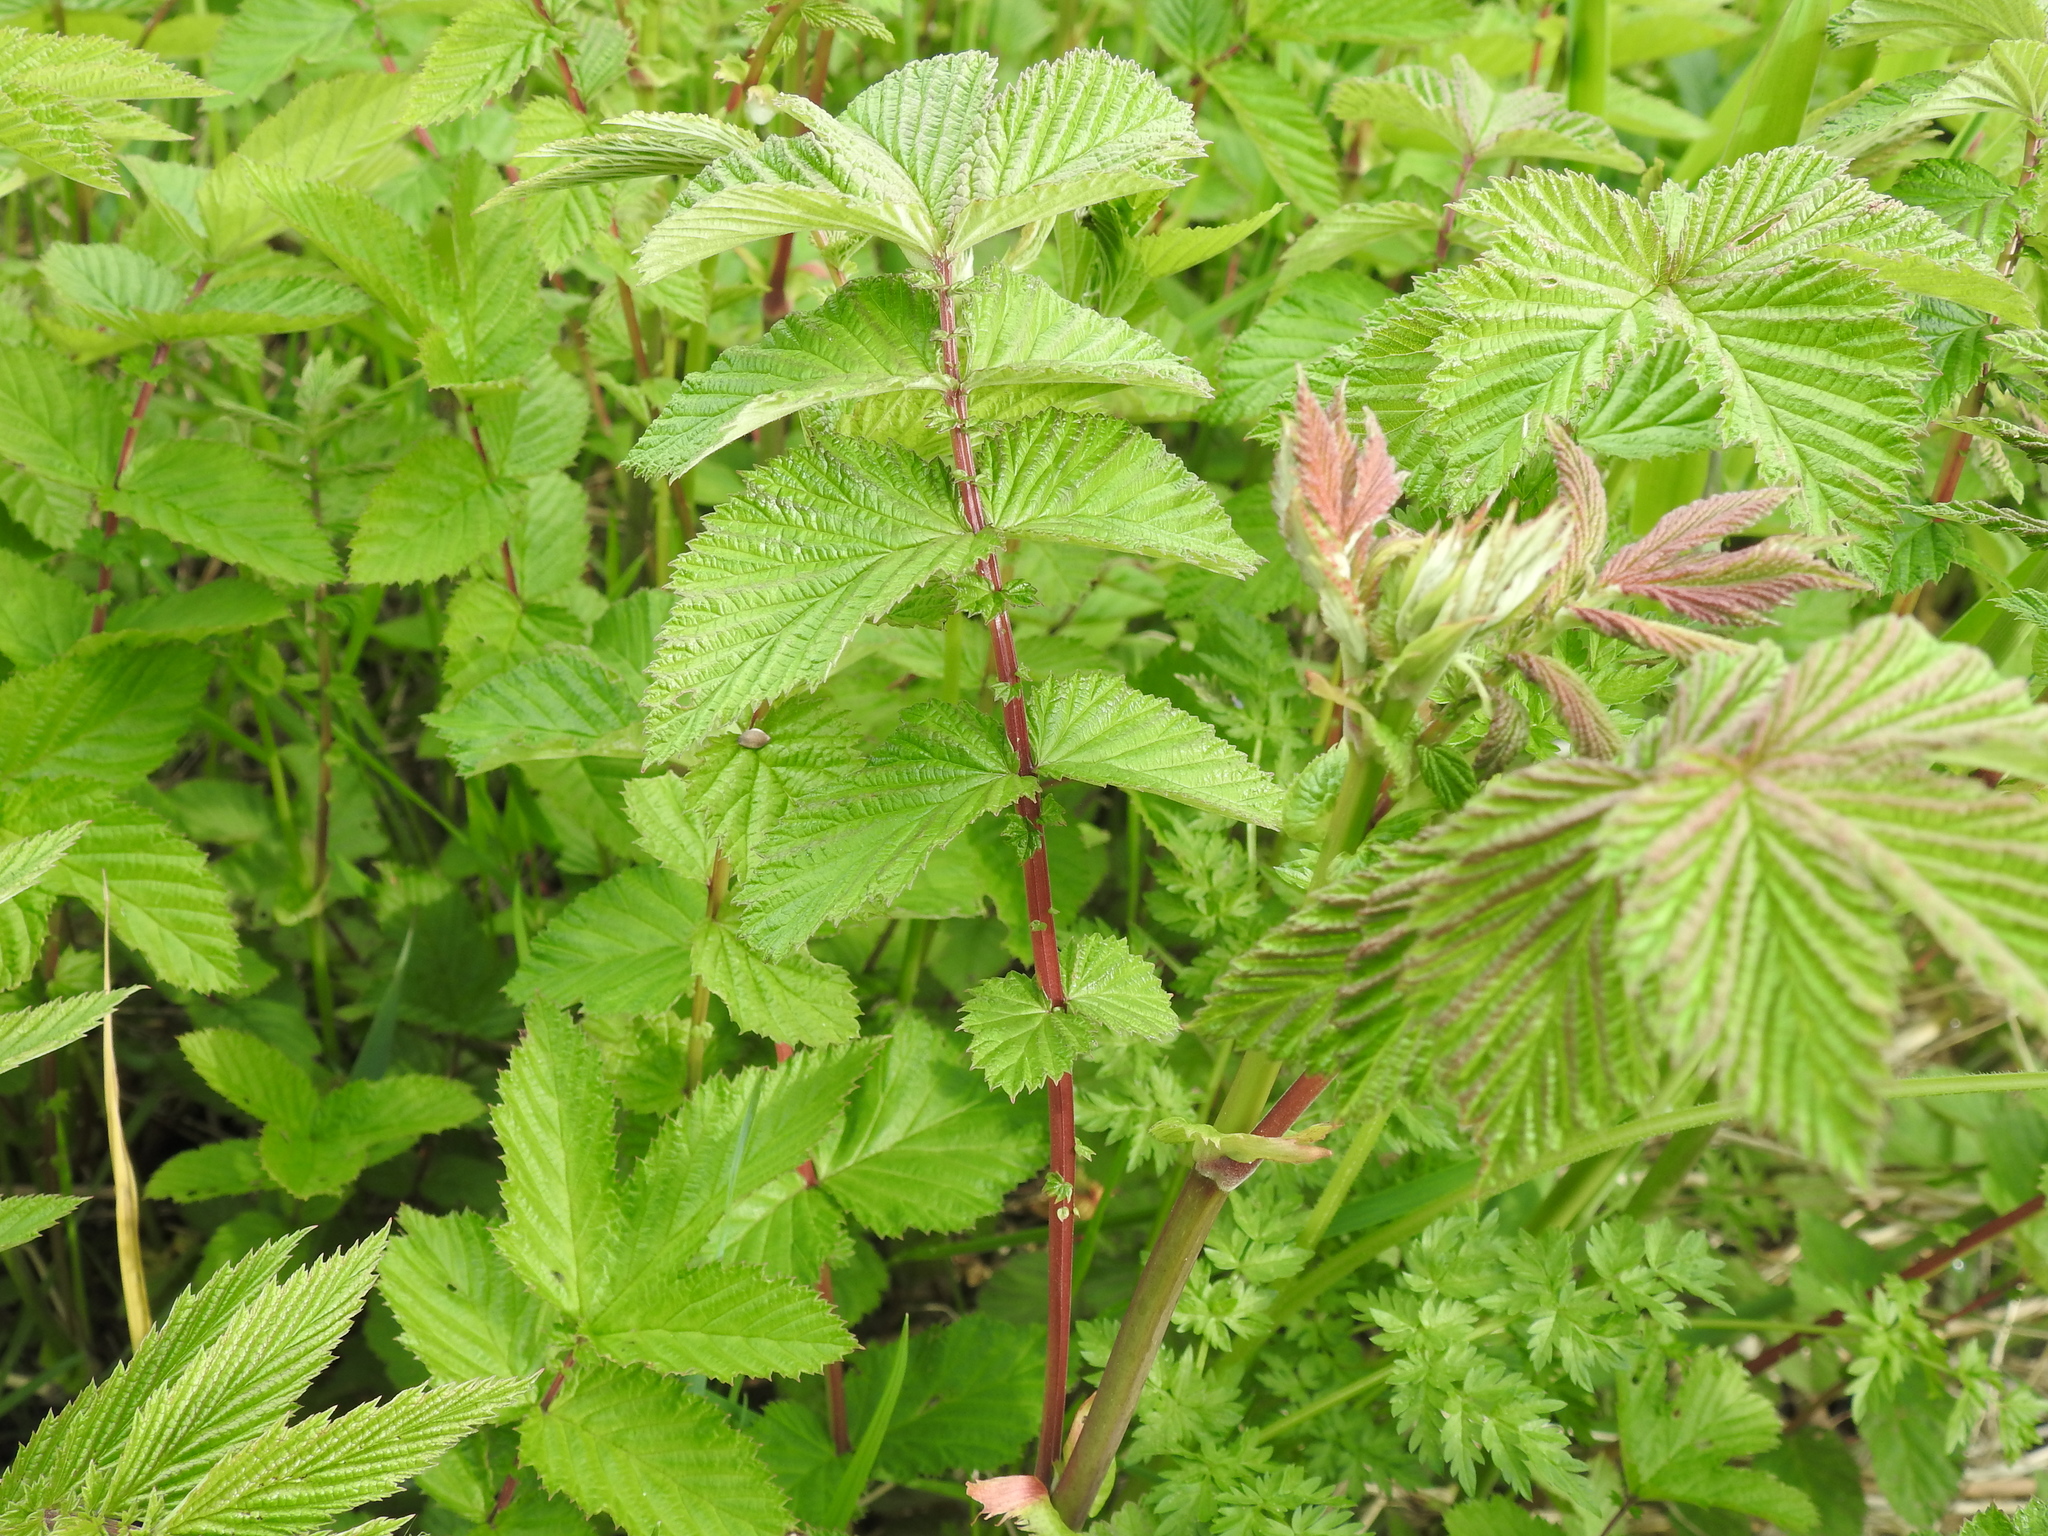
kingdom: Plantae
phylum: Tracheophyta
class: Magnoliopsida
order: Rosales
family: Rosaceae
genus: Filipendula
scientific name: Filipendula ulmaria
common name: Meadowsweet
